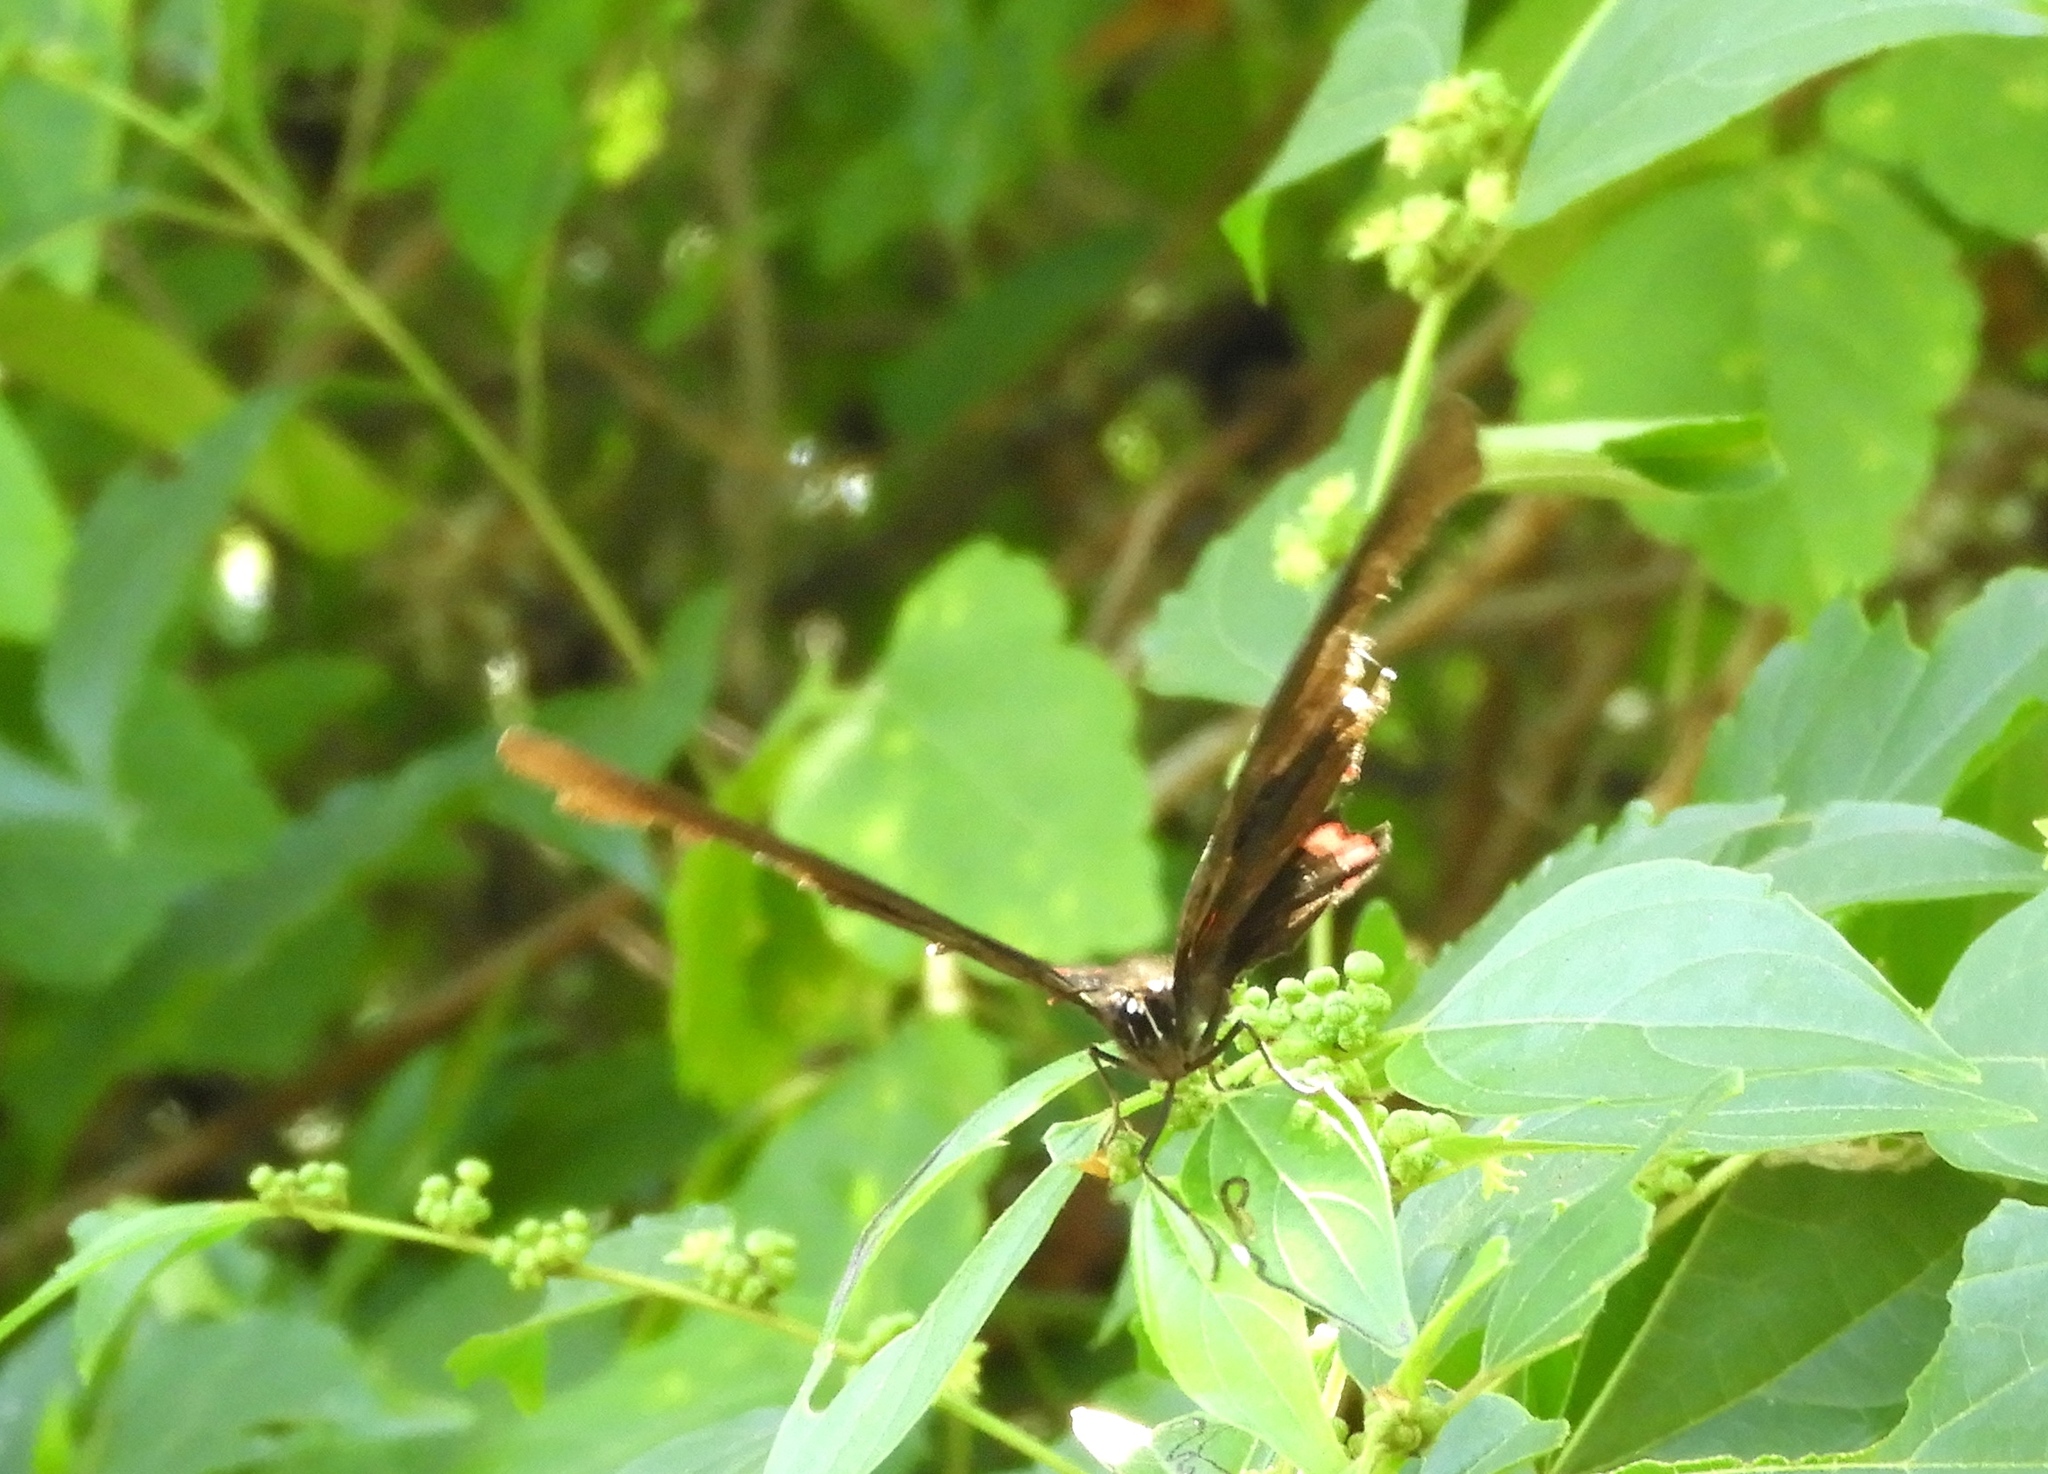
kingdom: Animalia
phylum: Arthropoda
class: Insecta
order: Lepidoptera
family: Nymphalidae
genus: Biblis
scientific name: Biblis aganisa
